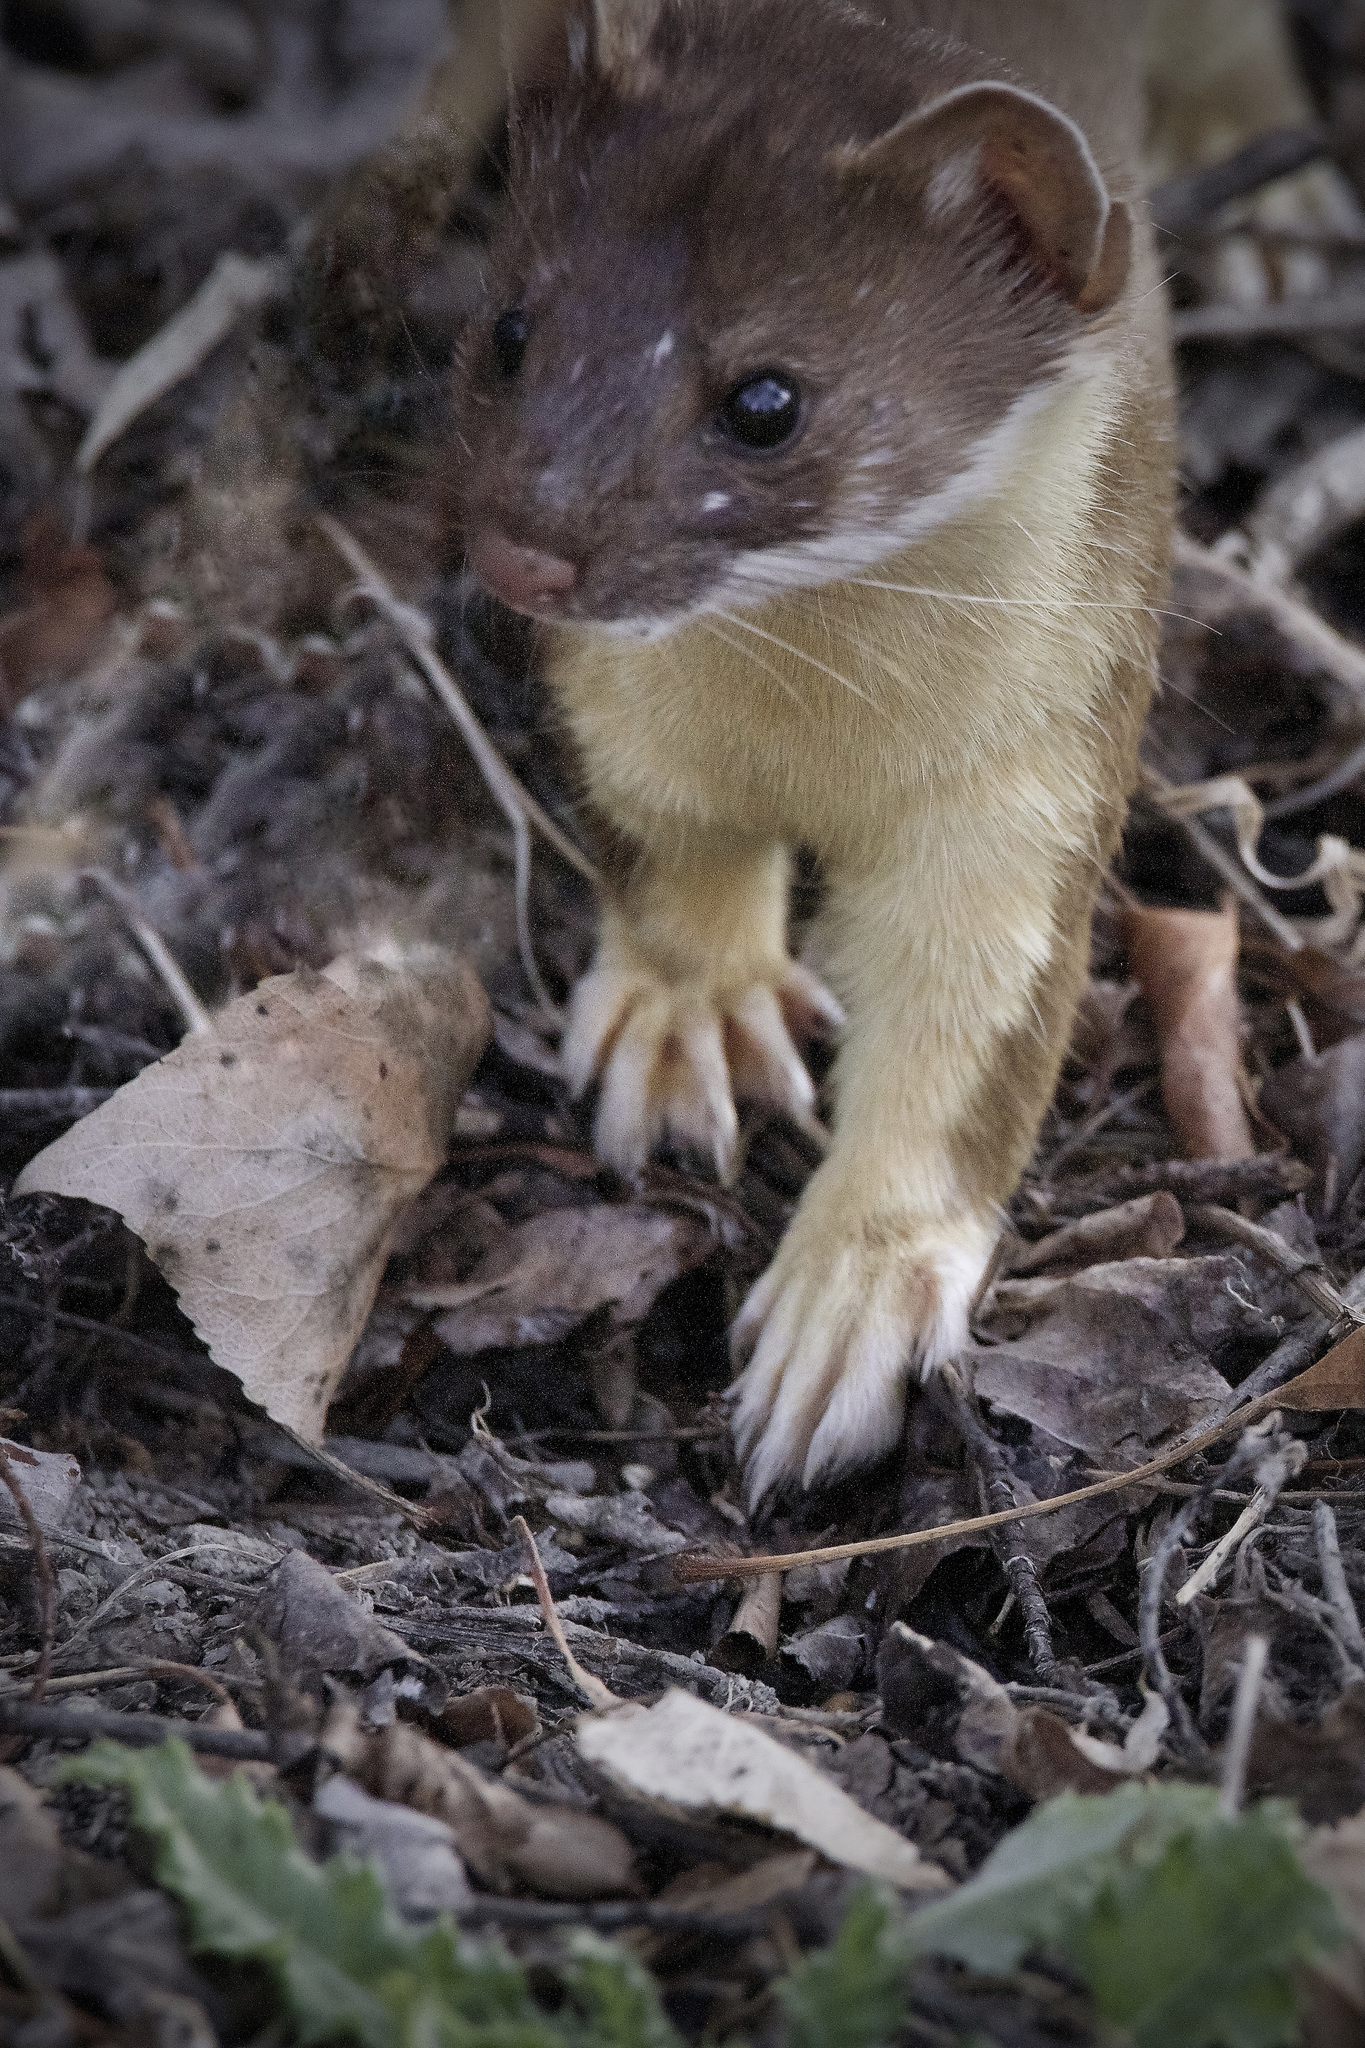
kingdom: Animalia
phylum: Chordata
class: Mammalia
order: Carnivora
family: Mustelidae
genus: Mustela
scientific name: Mustela
